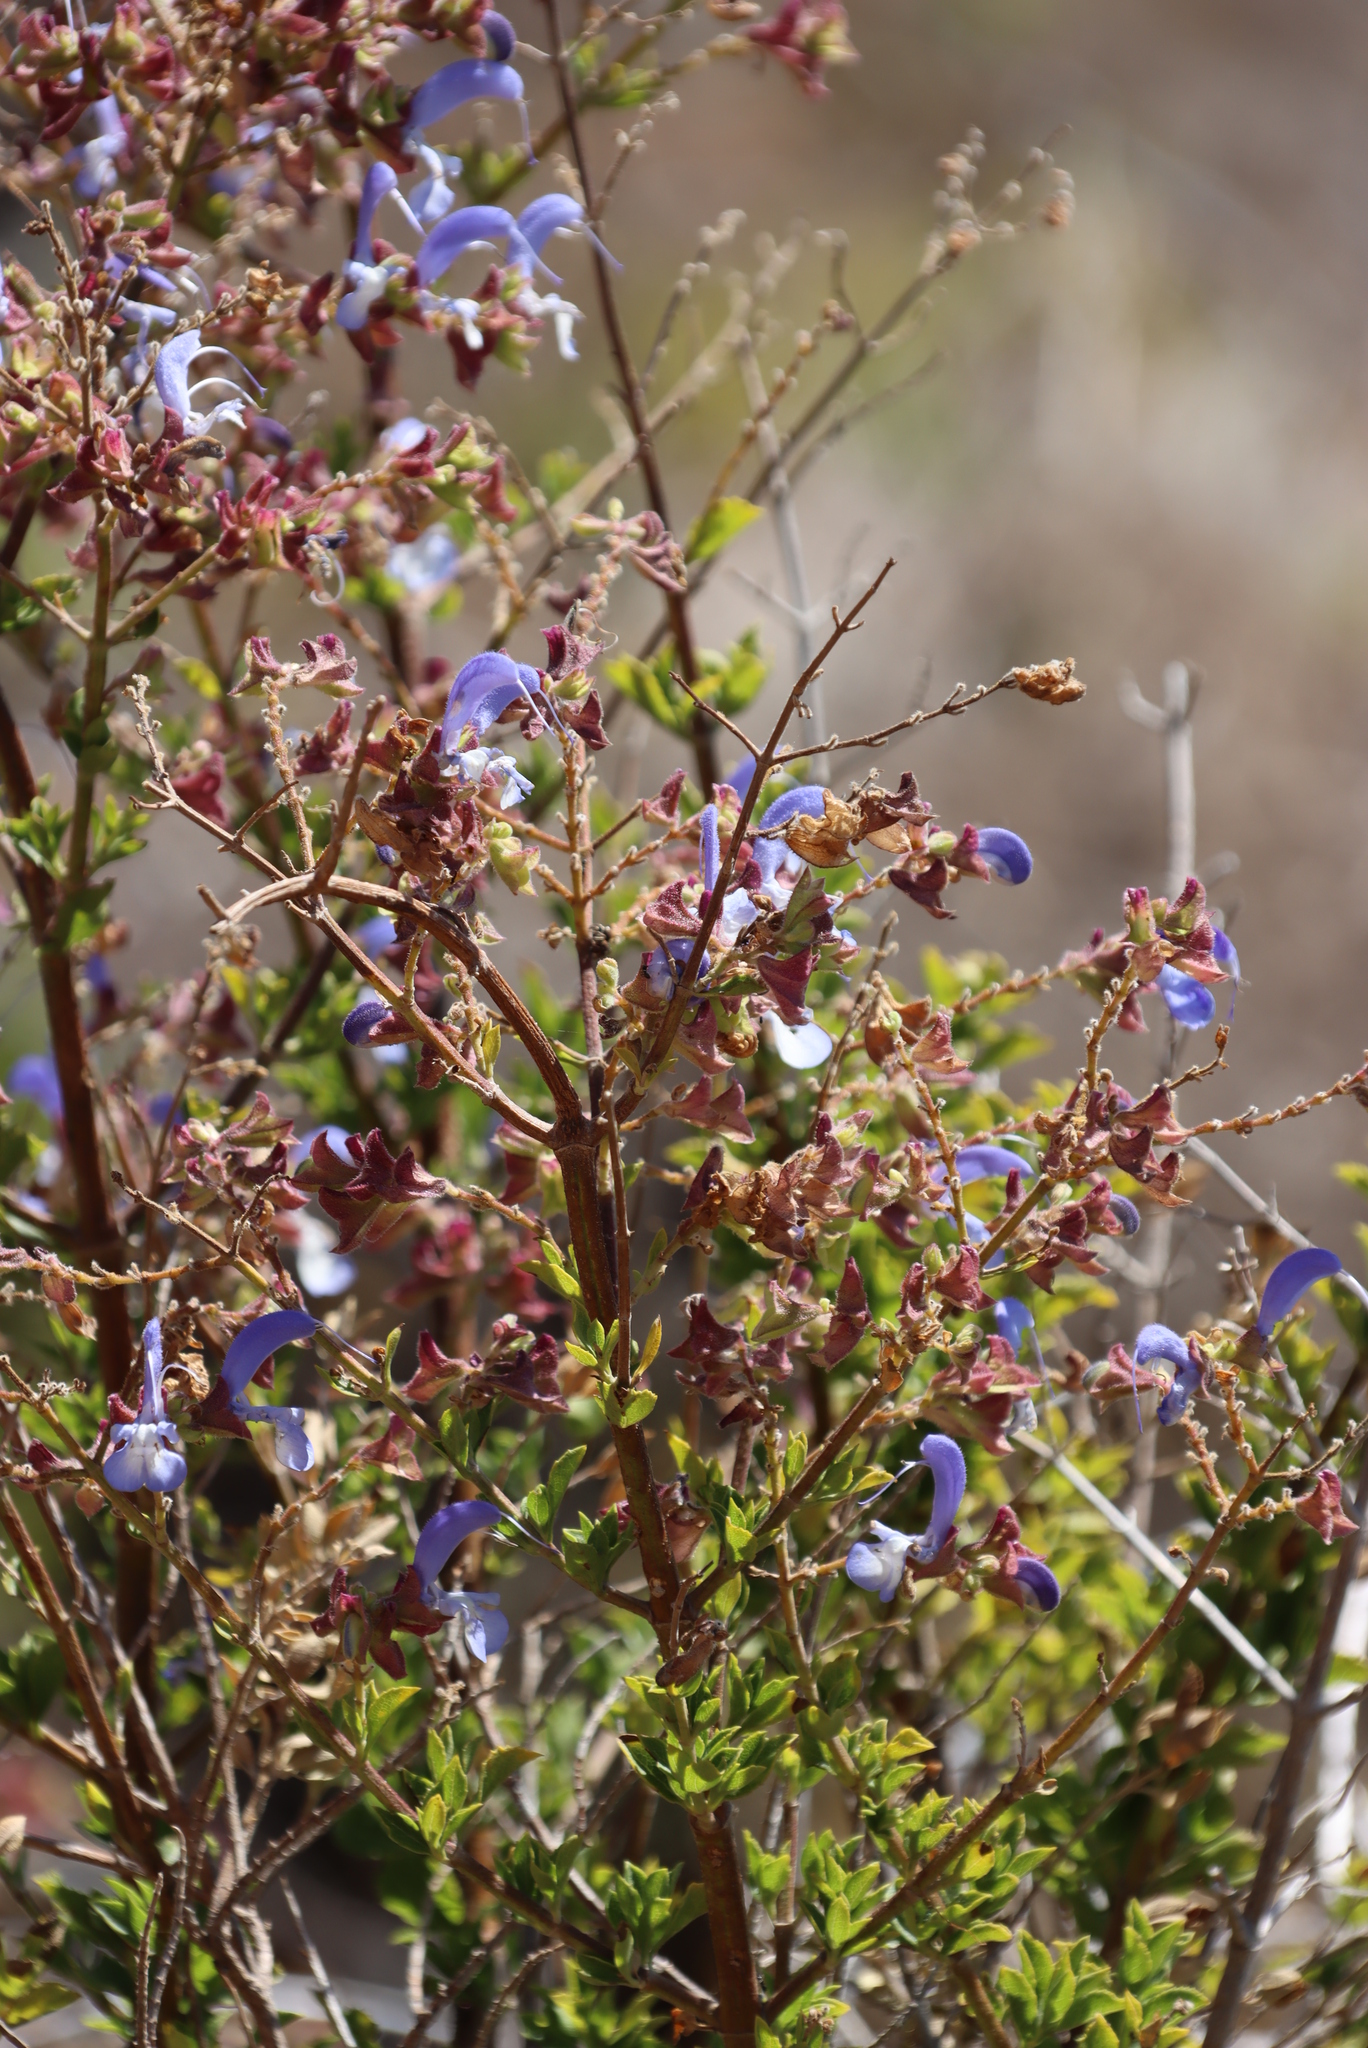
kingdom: Plantae
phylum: Tracheophyta
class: Magnoliopsida
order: Lamiales
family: Lamiaceae
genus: Salvia
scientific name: Salvia chamelaeagnea
